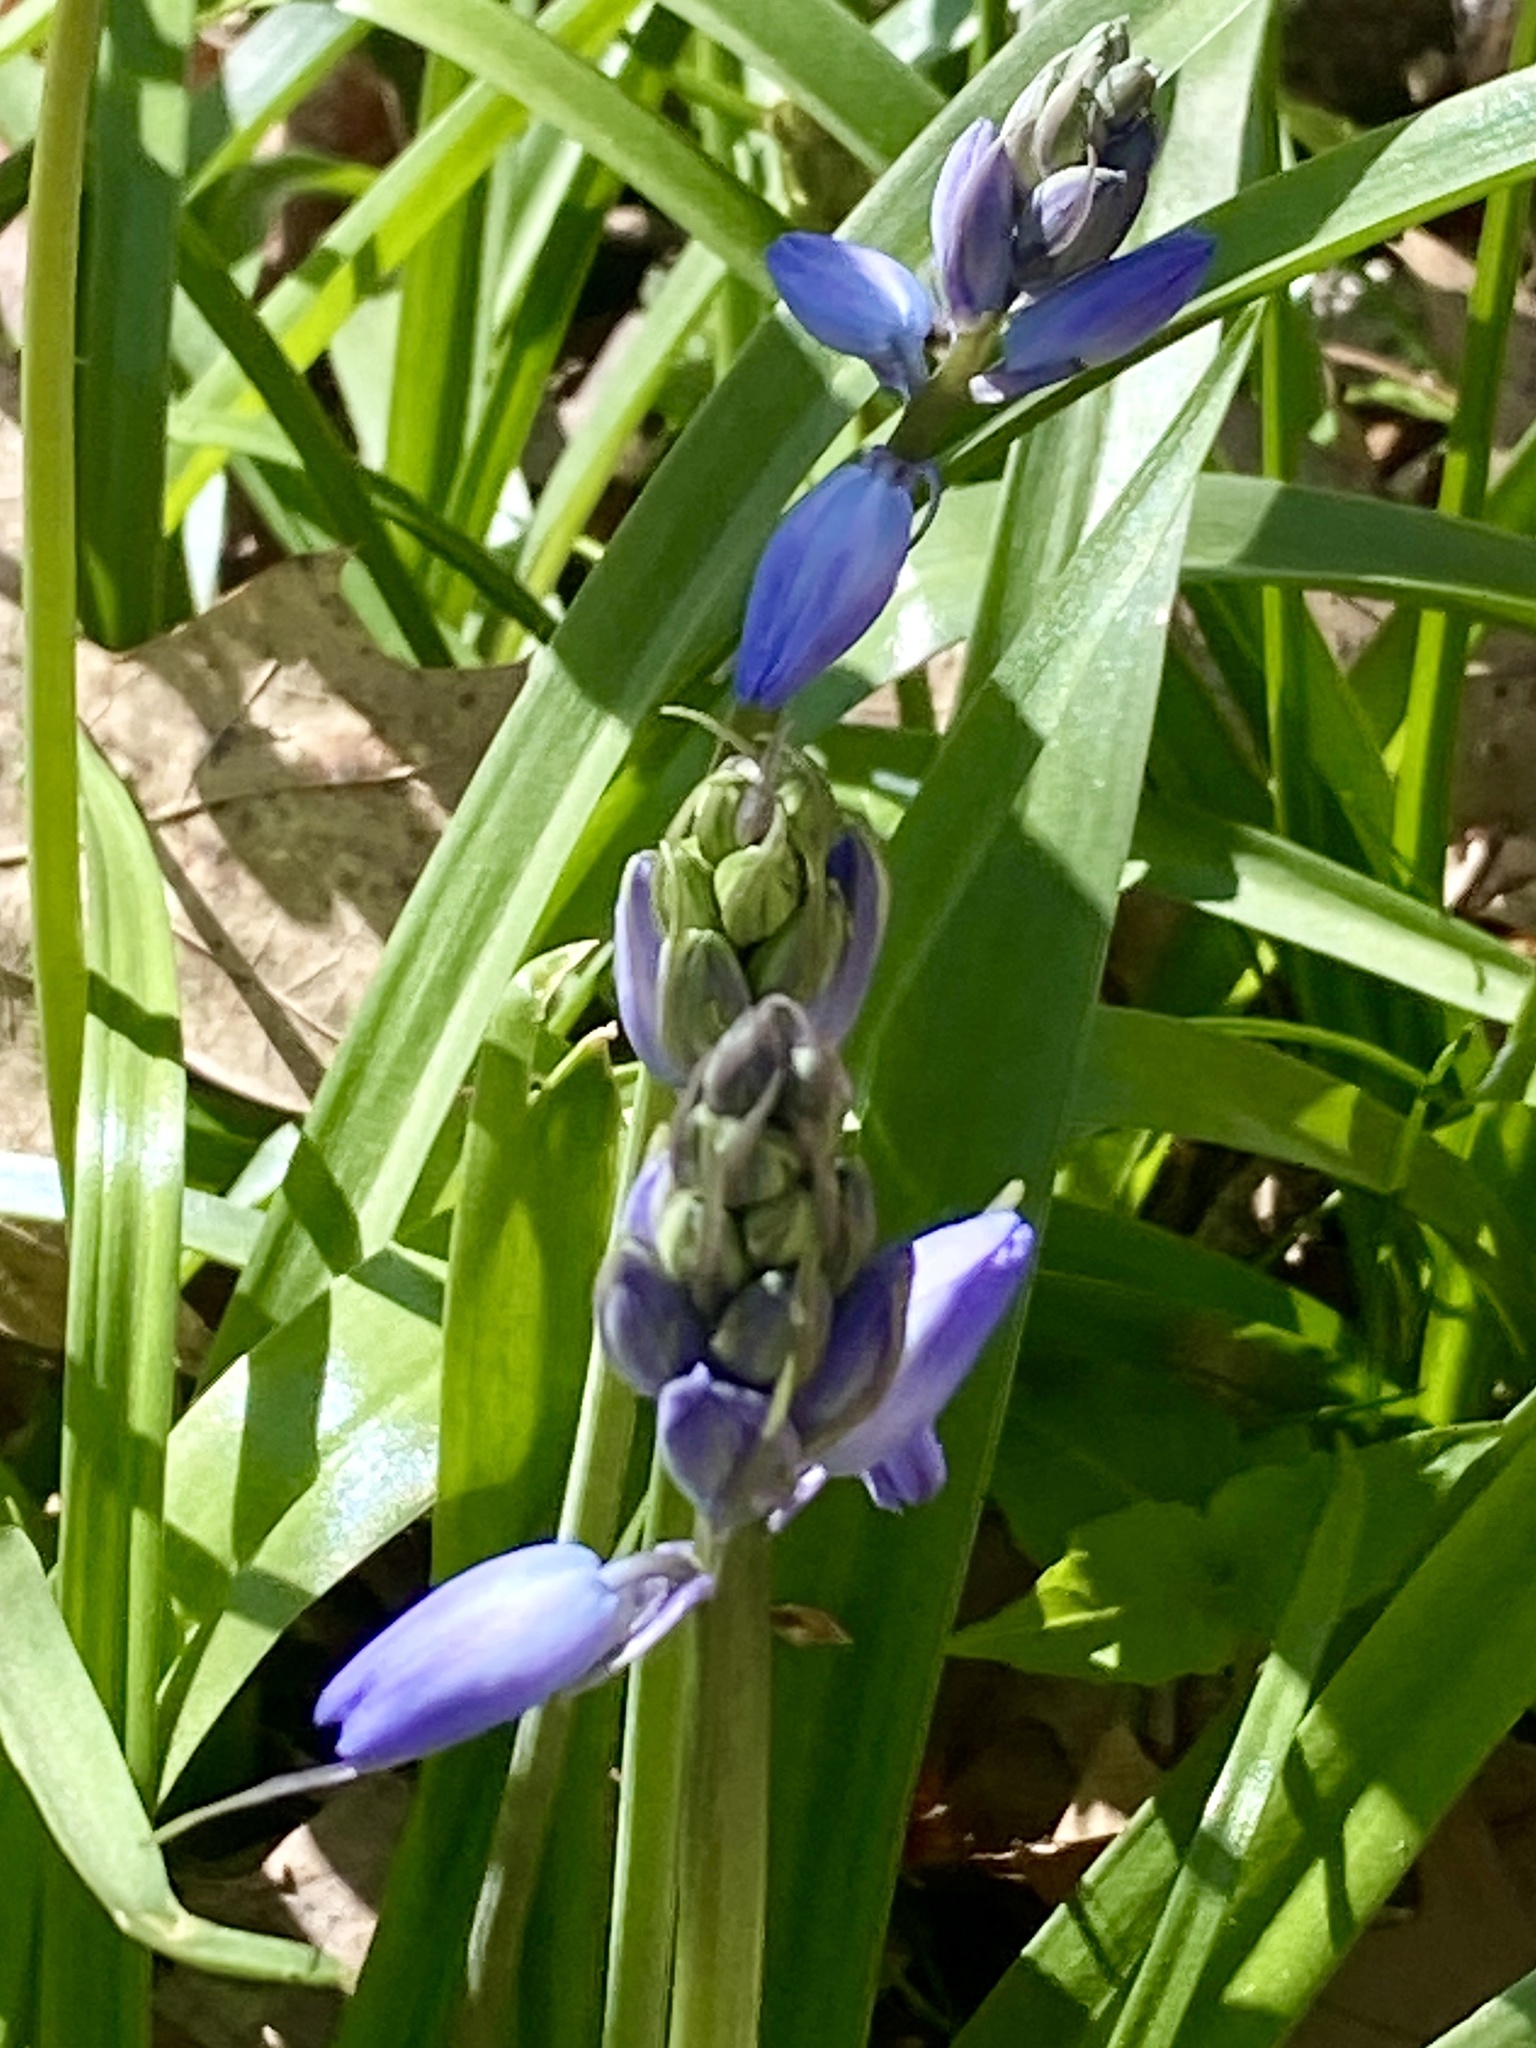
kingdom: Plantae
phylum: Tracheophyta
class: Liliopsida
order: Asparagales
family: Asparagaceae
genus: Hyacinthoides
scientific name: Hyacinthoides hispanica
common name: Spanish bluebell
